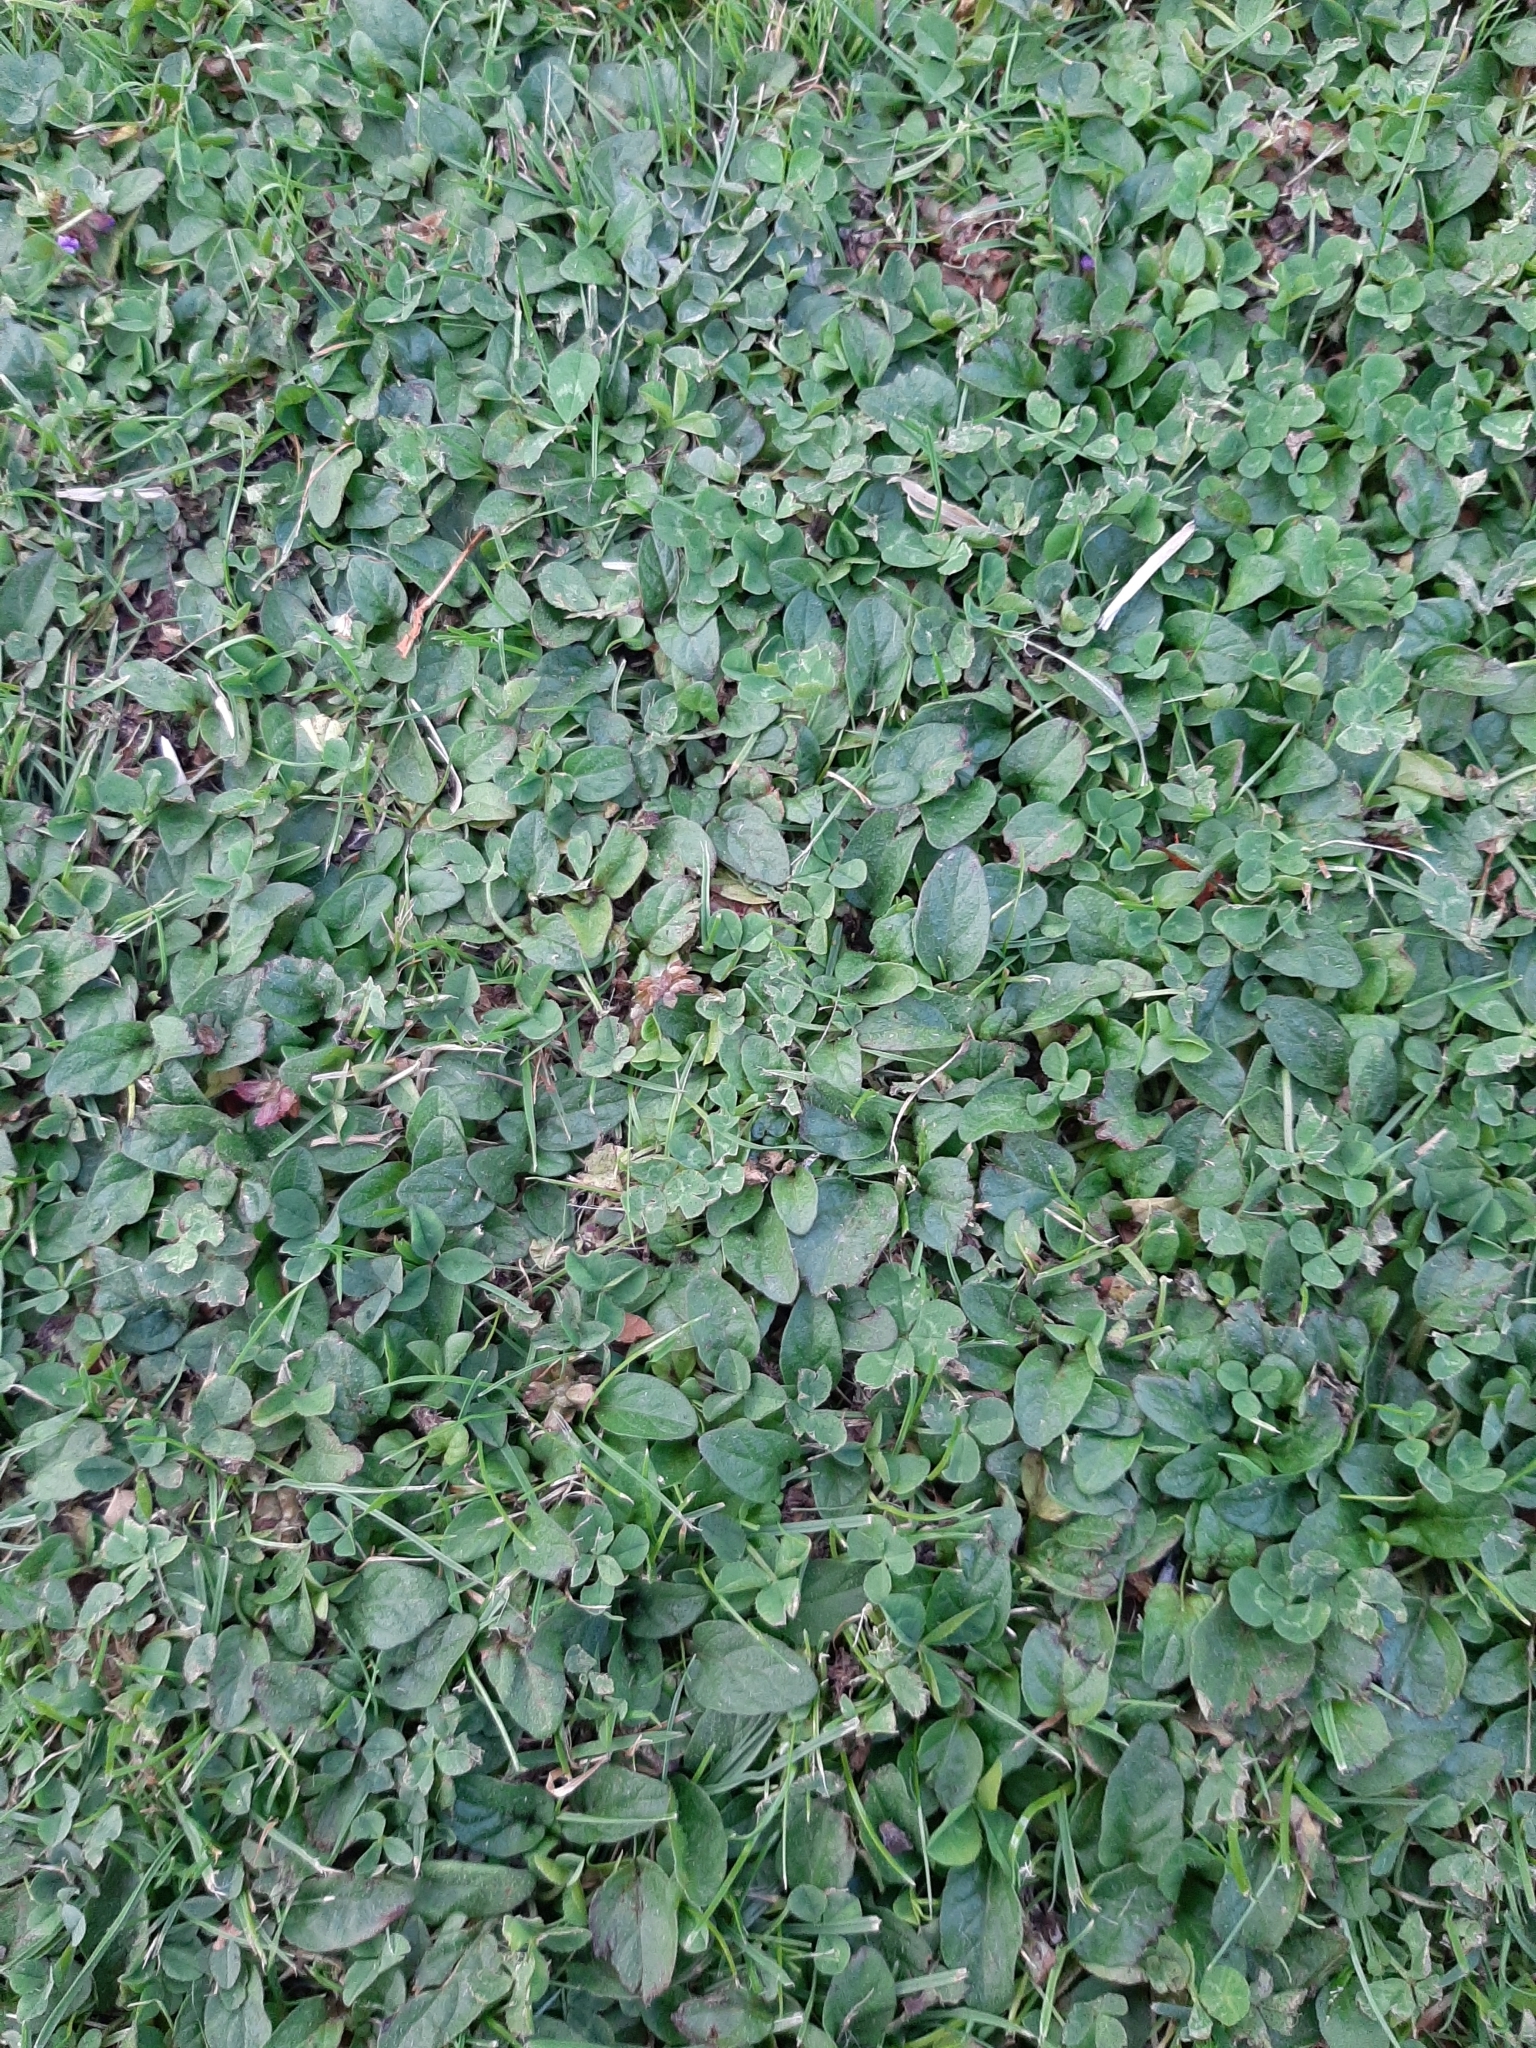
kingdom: Plantae
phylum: Tracheophyta
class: Magnoliopsida
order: Lamiales
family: Lamiaceae
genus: Prunella
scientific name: Prunella vulgaris
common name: Heal-all
